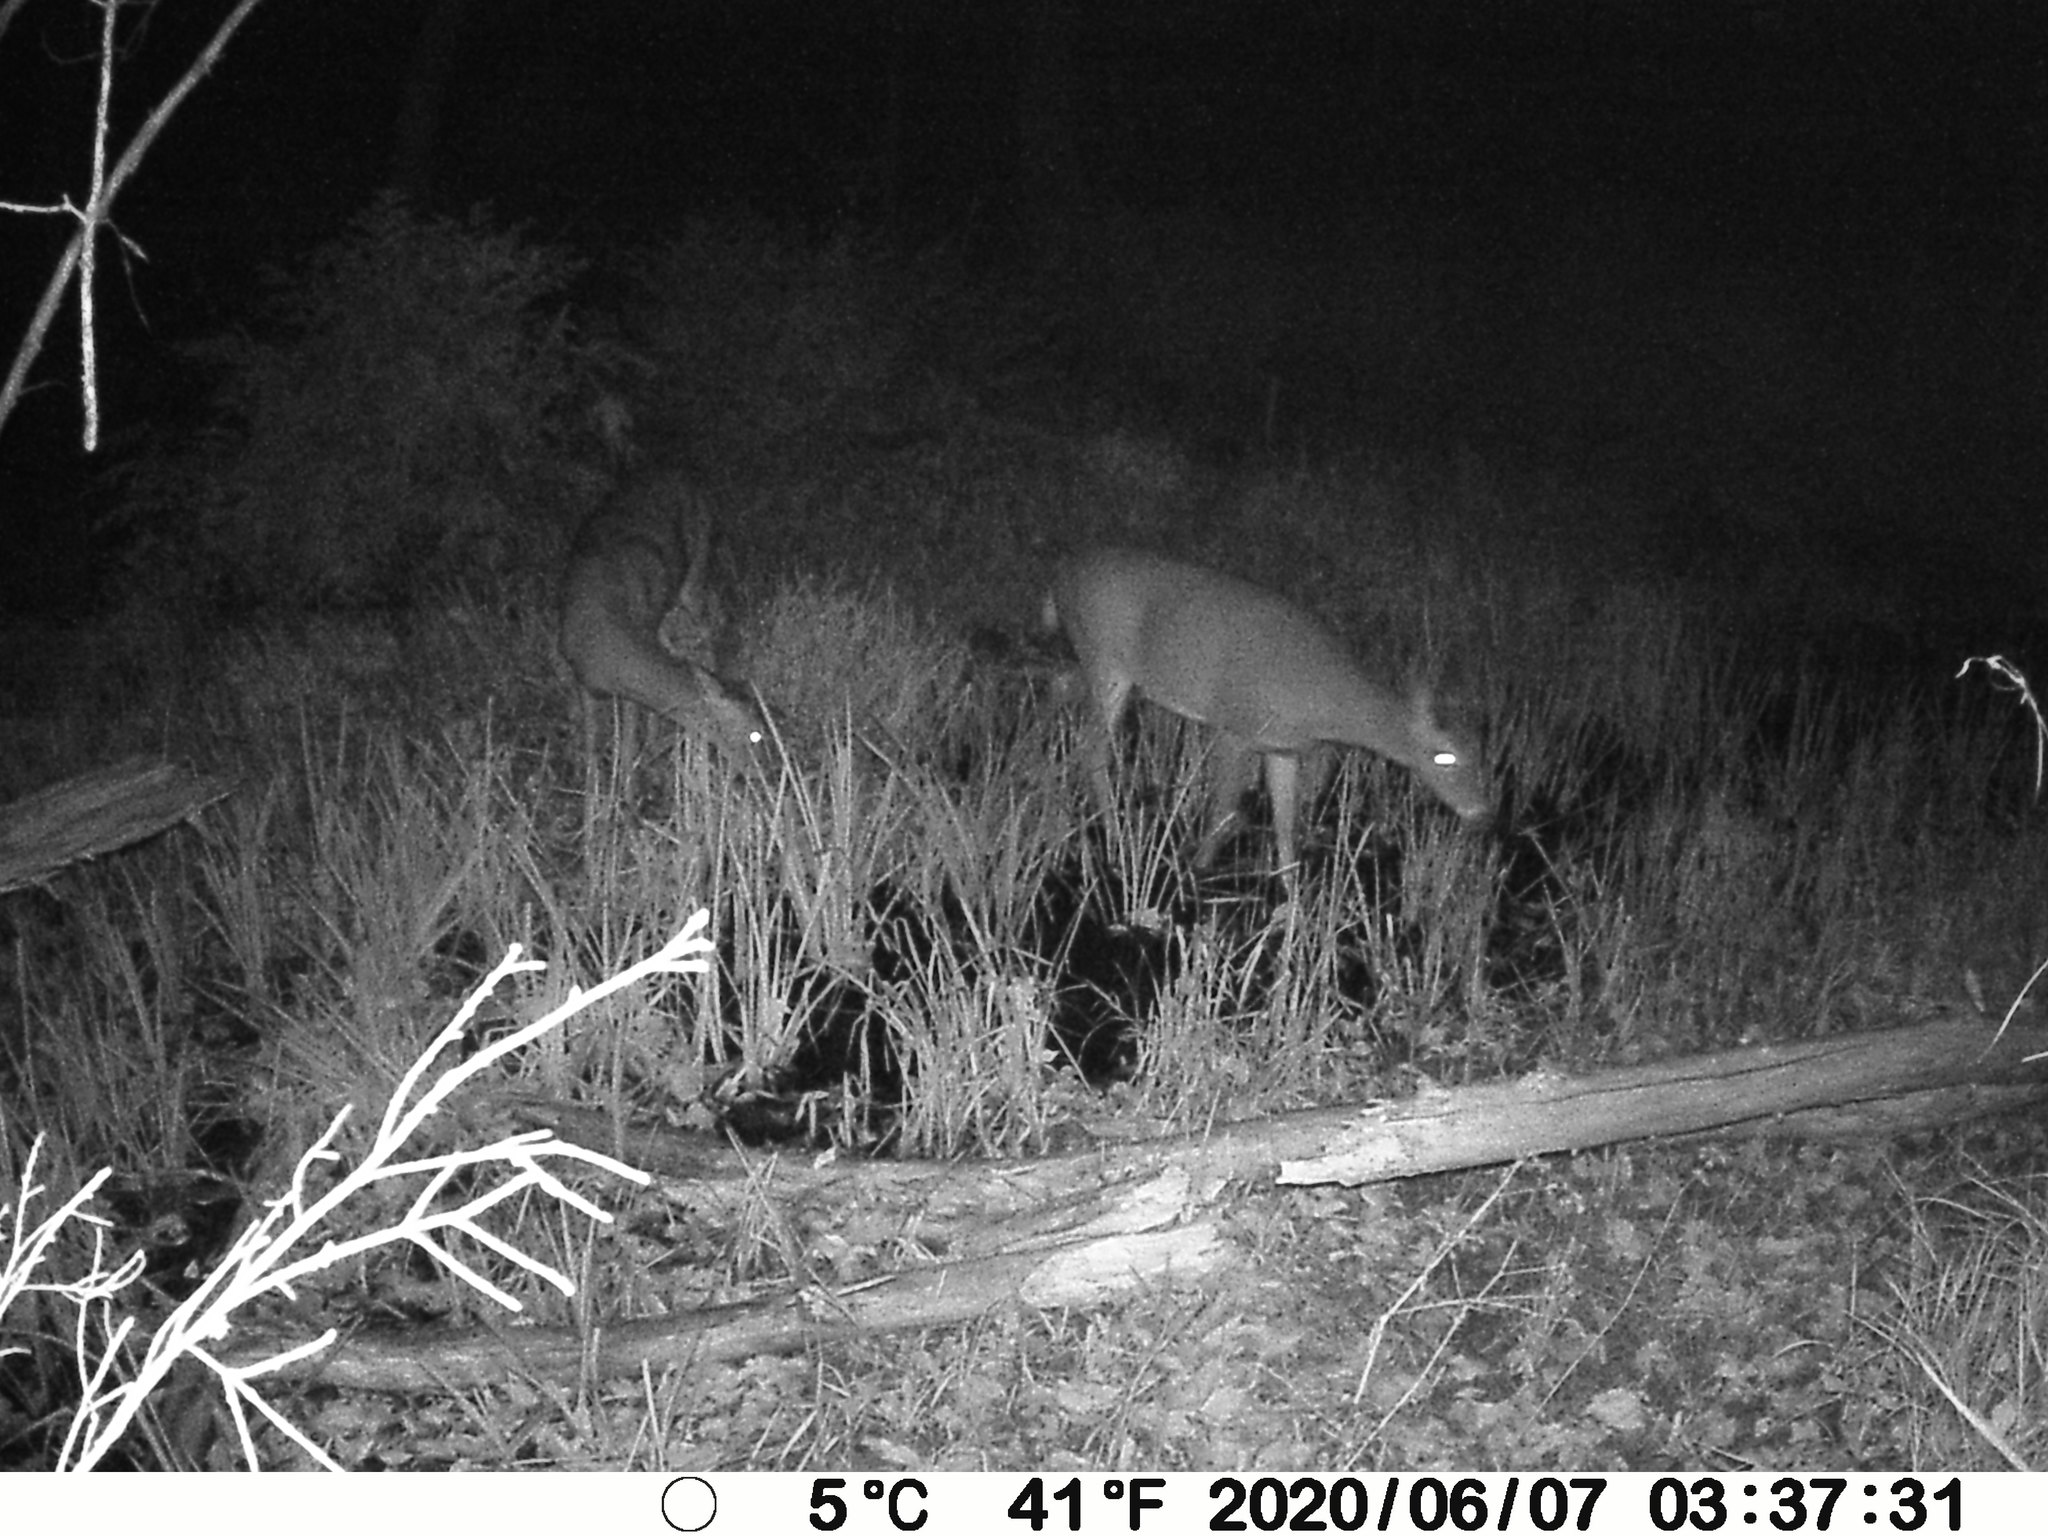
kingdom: Animalia
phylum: Chordata
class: Mammalia
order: Artiodactyla
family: Cervidae
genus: Odocoileus
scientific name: Odocoileus virginianus
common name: White-tailed deer
